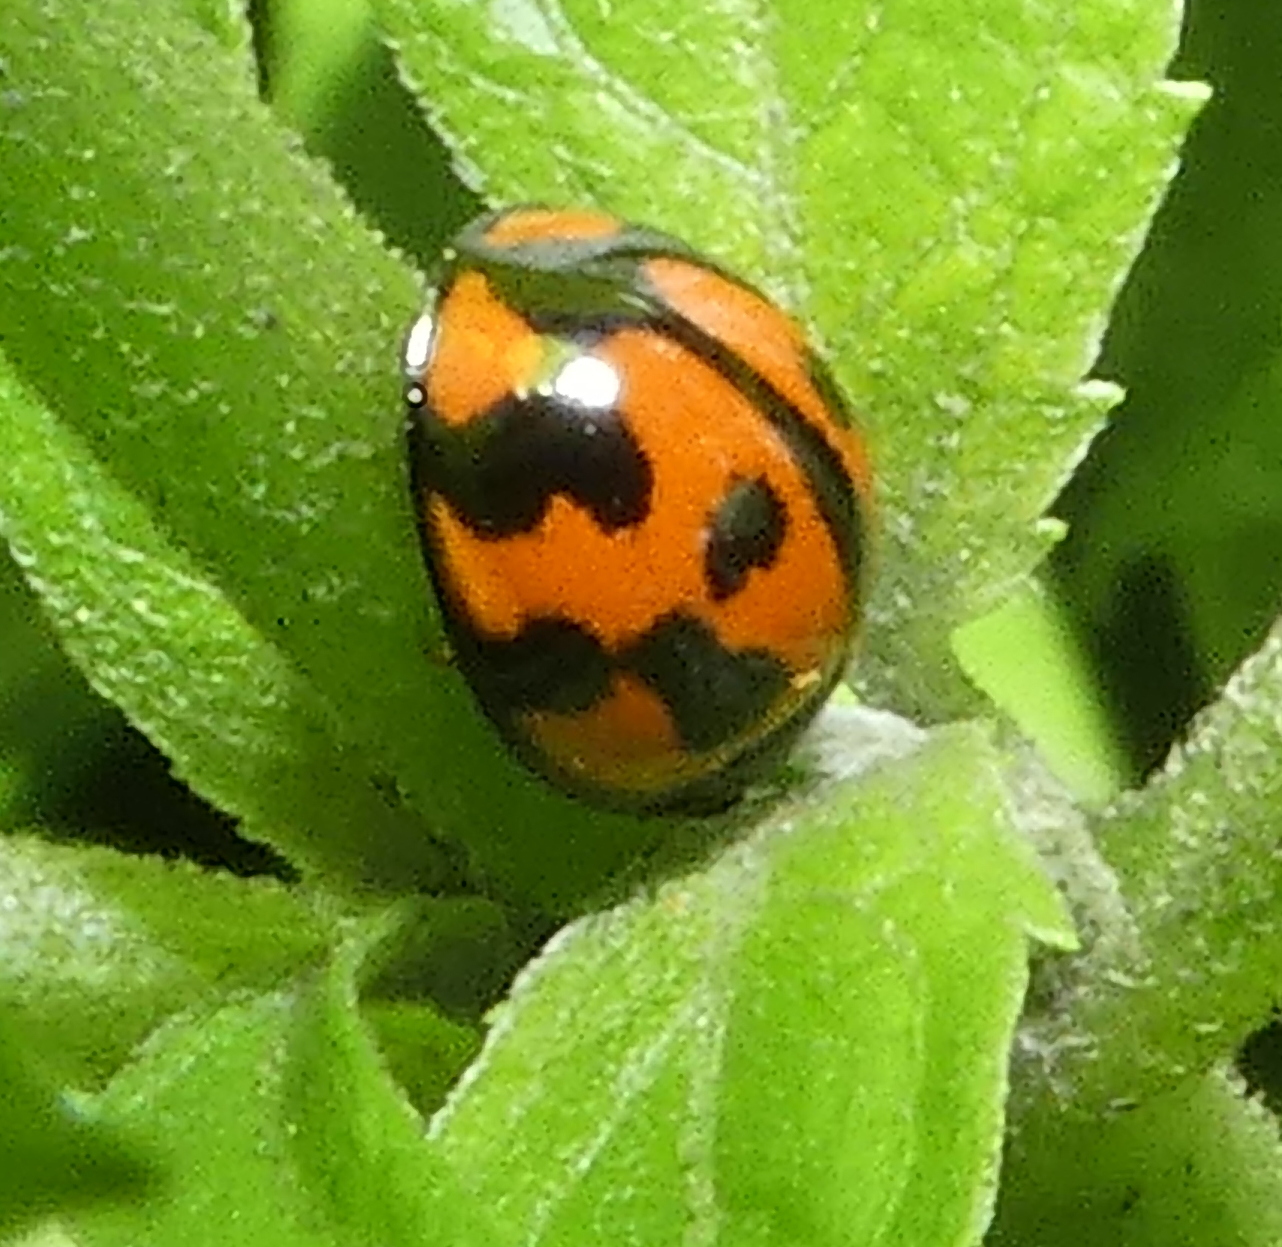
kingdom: Animalia
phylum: Arthropoda
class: Insecta
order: Coleoptera
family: Coccinellidae
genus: Coelophora
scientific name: Coelophora inaequalis
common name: Common australian lady beetle
